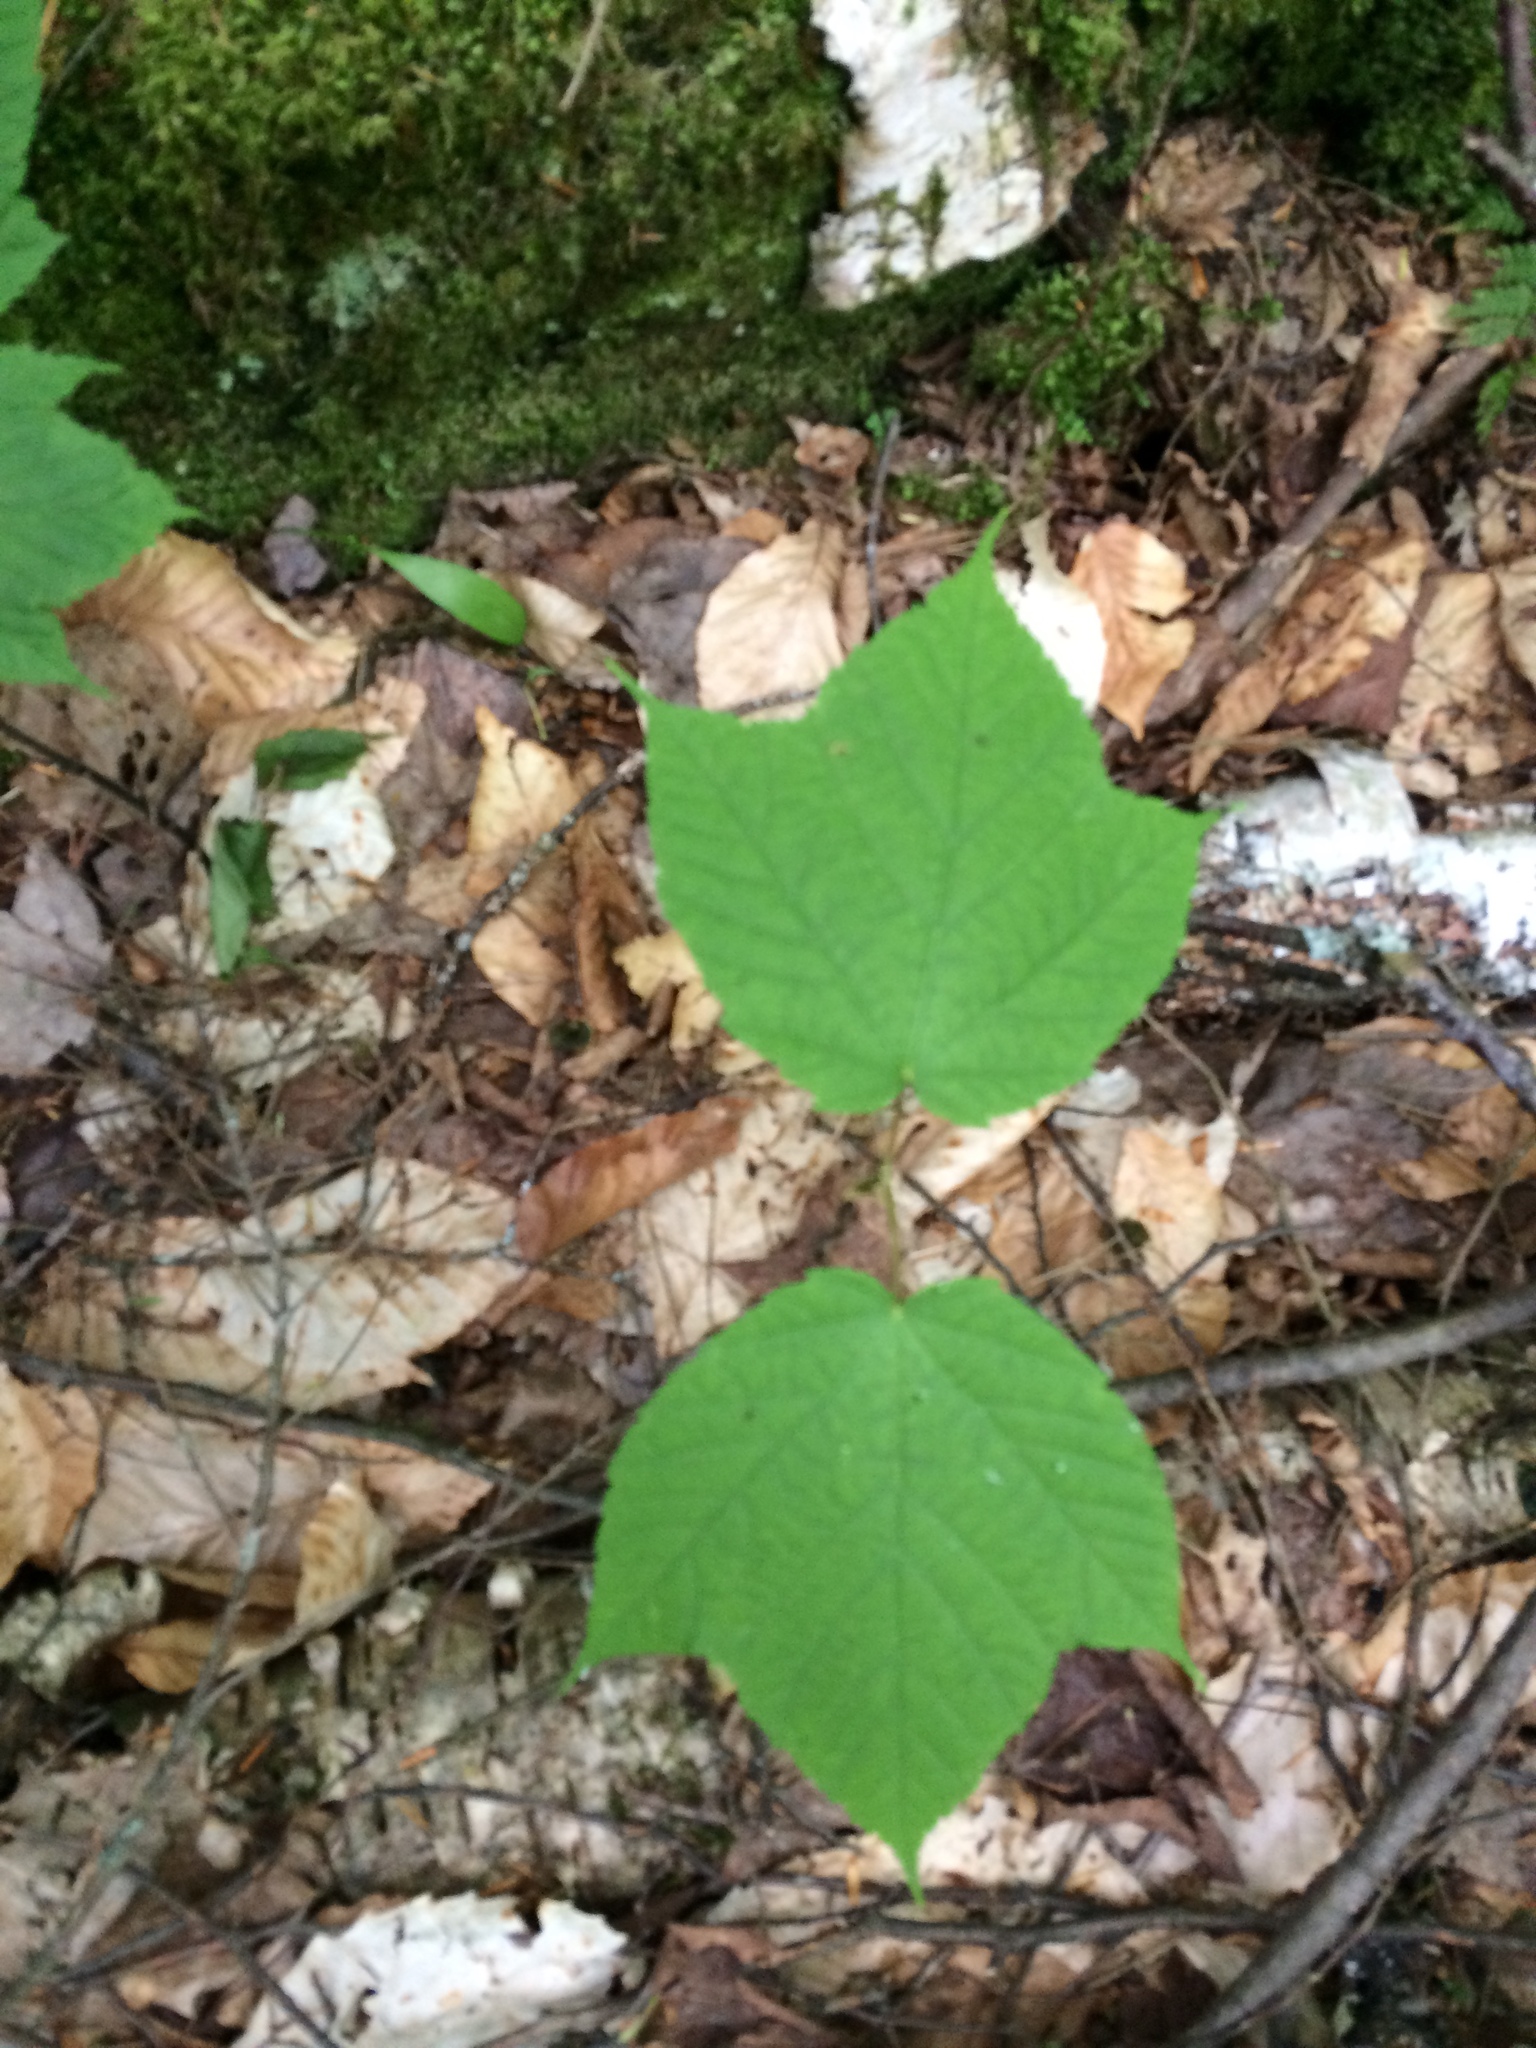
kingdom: Plantae
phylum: Tracheophyta
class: Magnoliopsida
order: Sapindales
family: Sapindaceae
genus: Acer
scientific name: Acer pensylvanicum
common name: Moosewood
